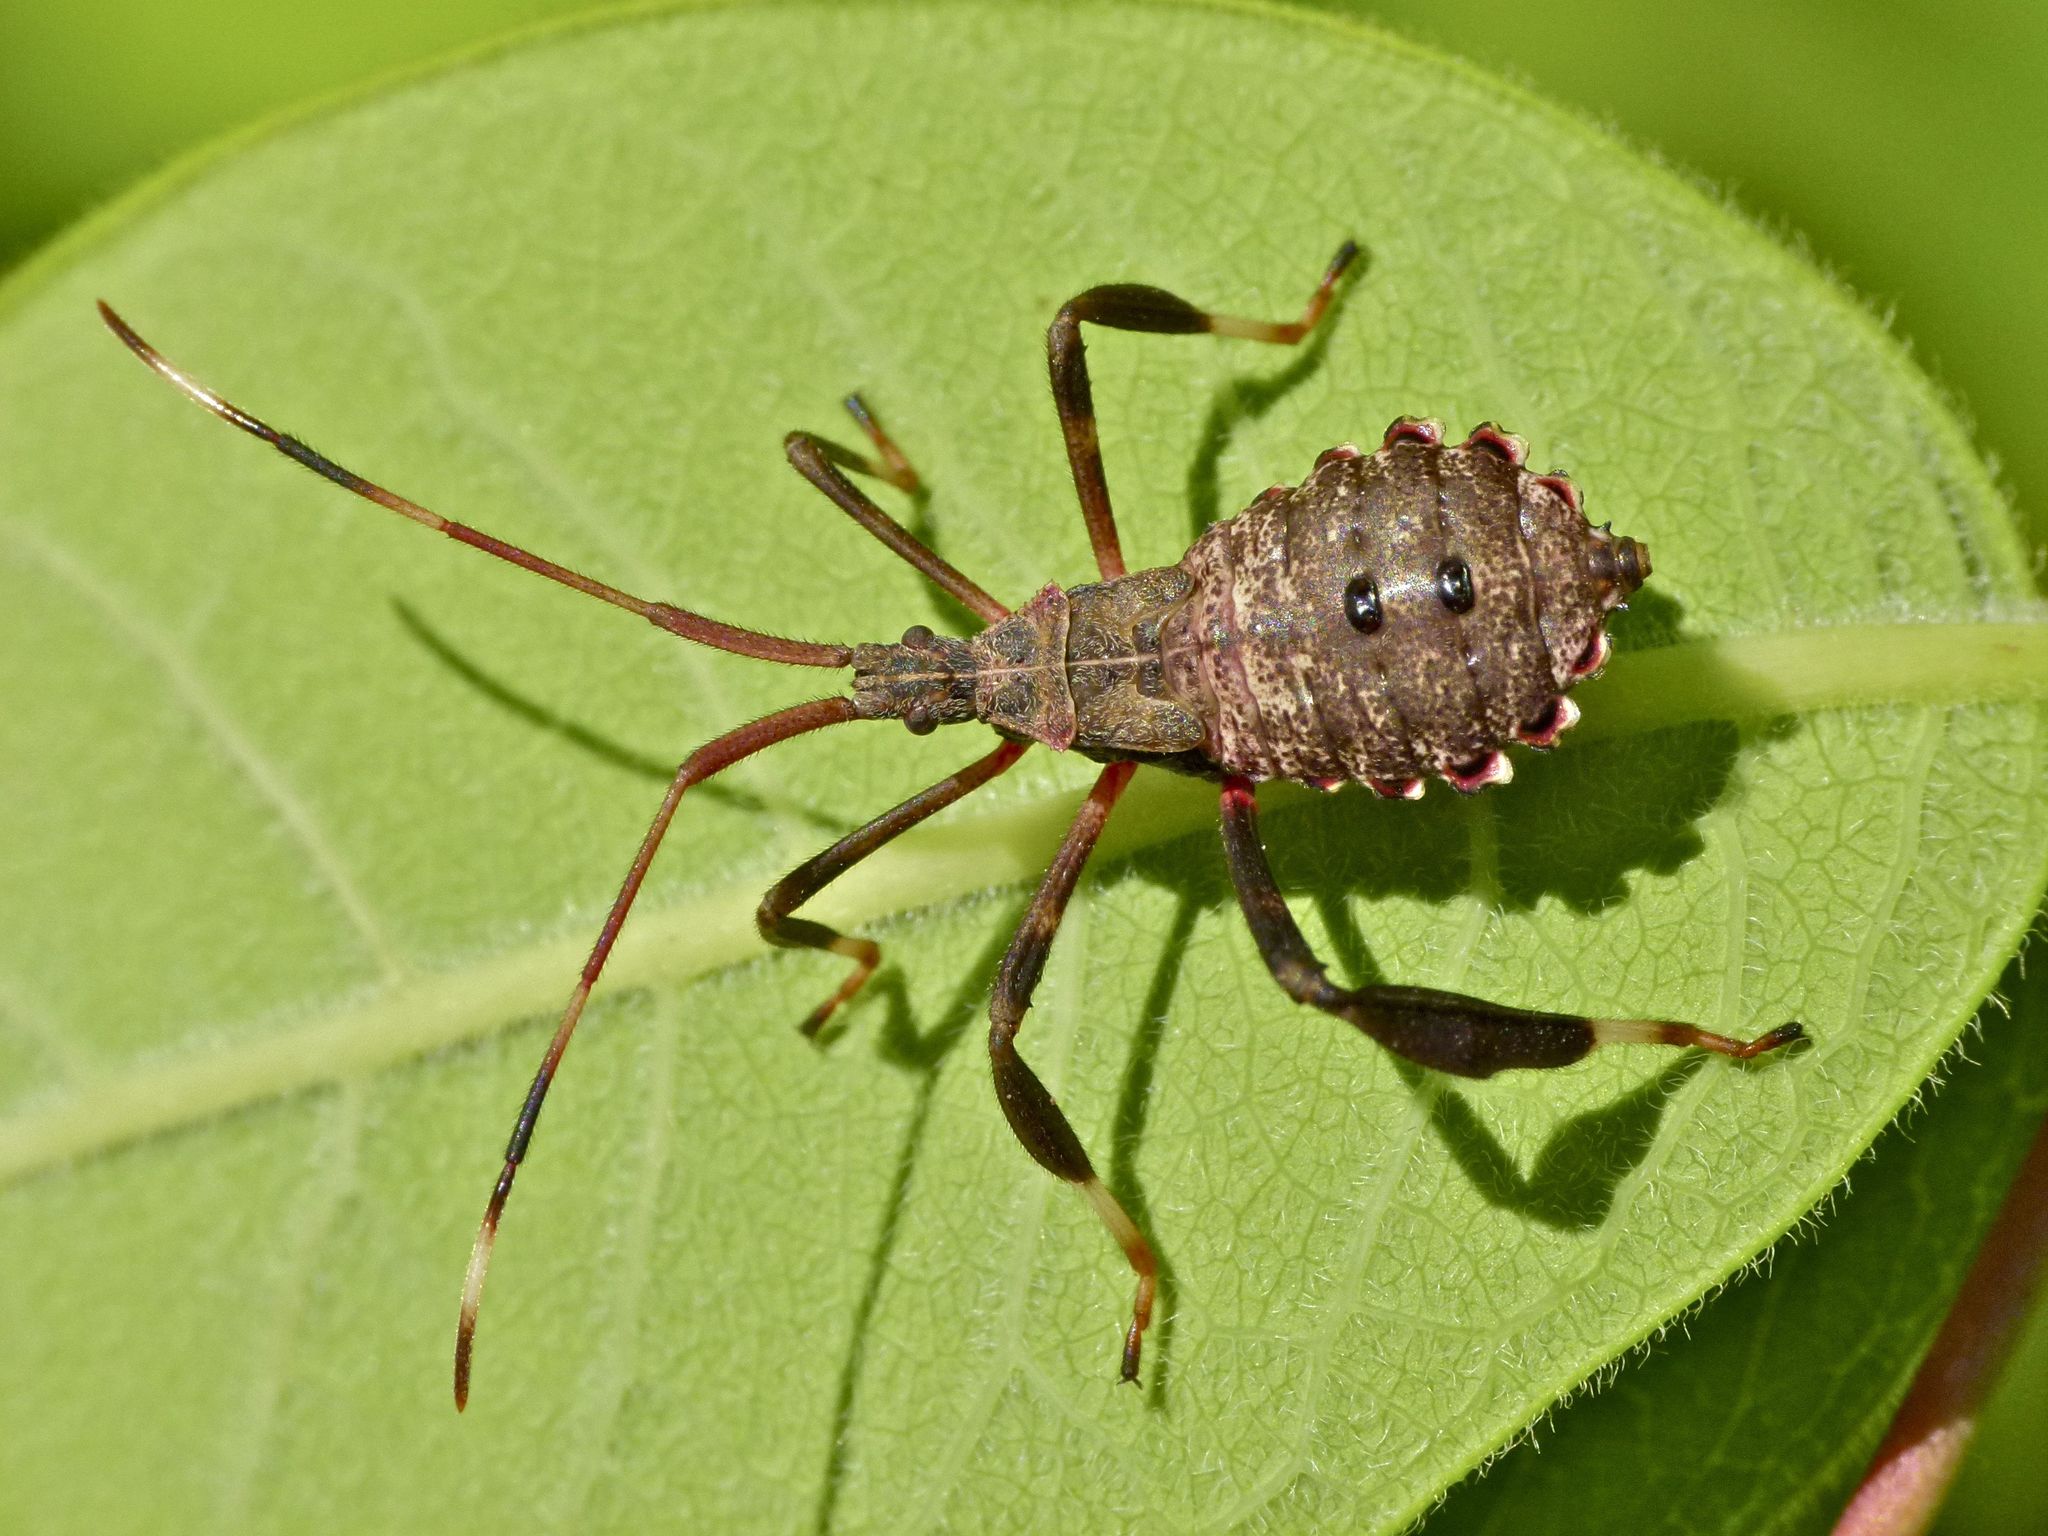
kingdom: Animalia
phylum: Arthropoda
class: Insecta
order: Hemiptera
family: Coreidae
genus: Acanthocephala
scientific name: Acanthocephala terminalis
